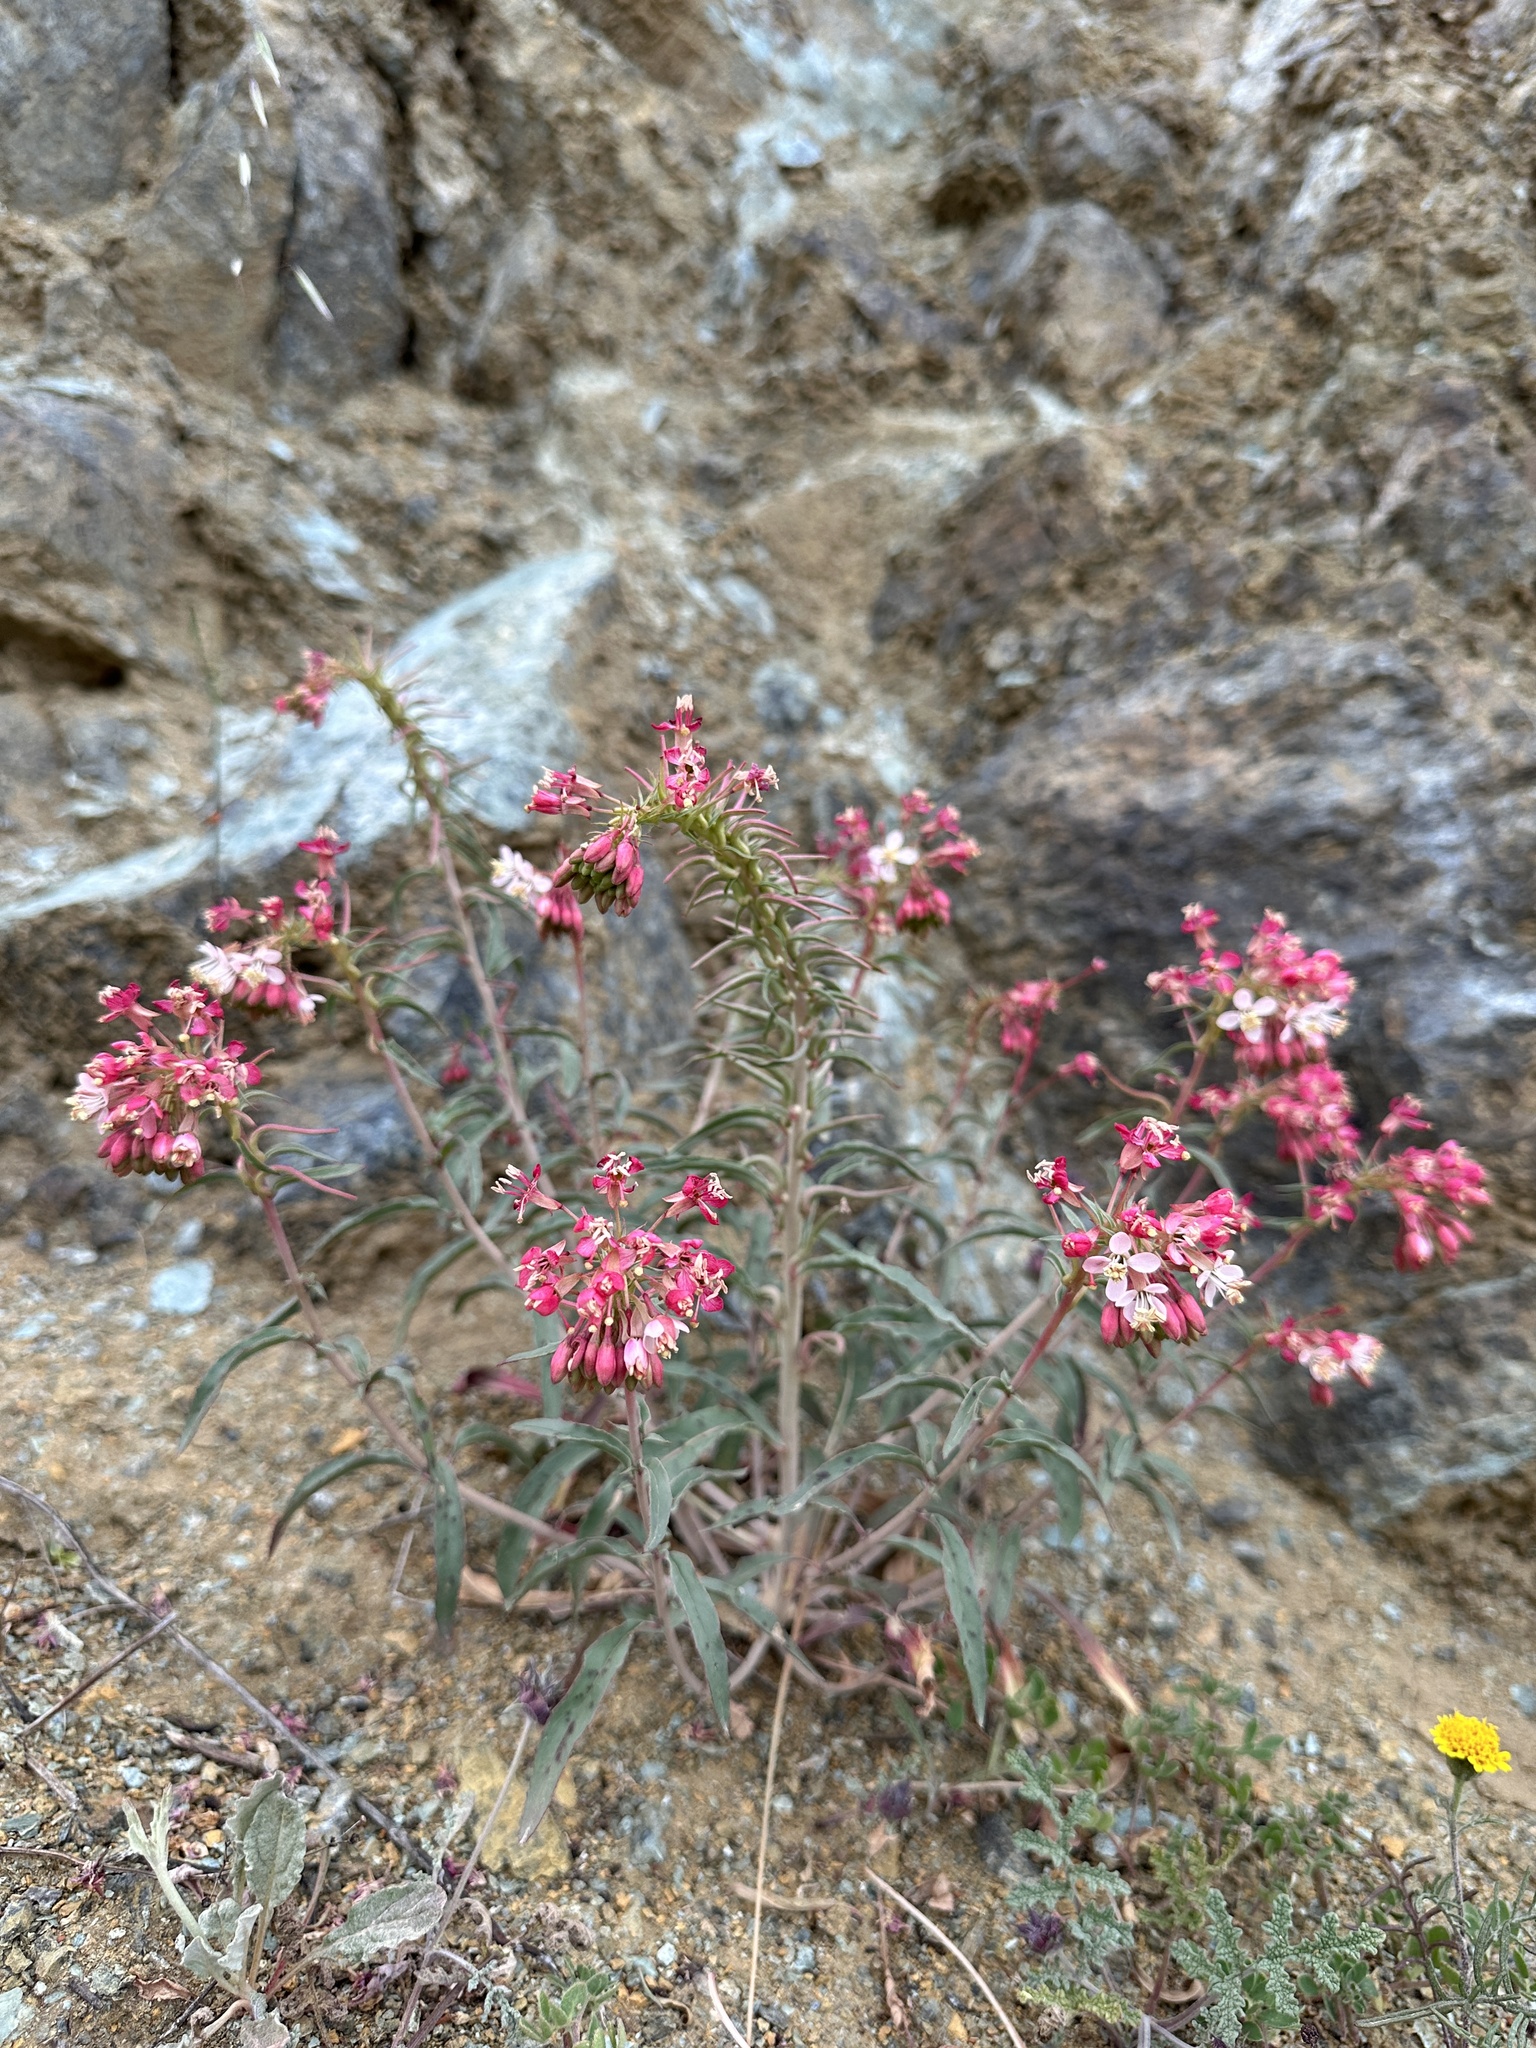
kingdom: Plantae
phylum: Tracheophyta
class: Magnoliopsida
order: Myrtales
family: Onagraceae
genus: Eremothera
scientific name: Eremothera boothii
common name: Booth's evening primrose
